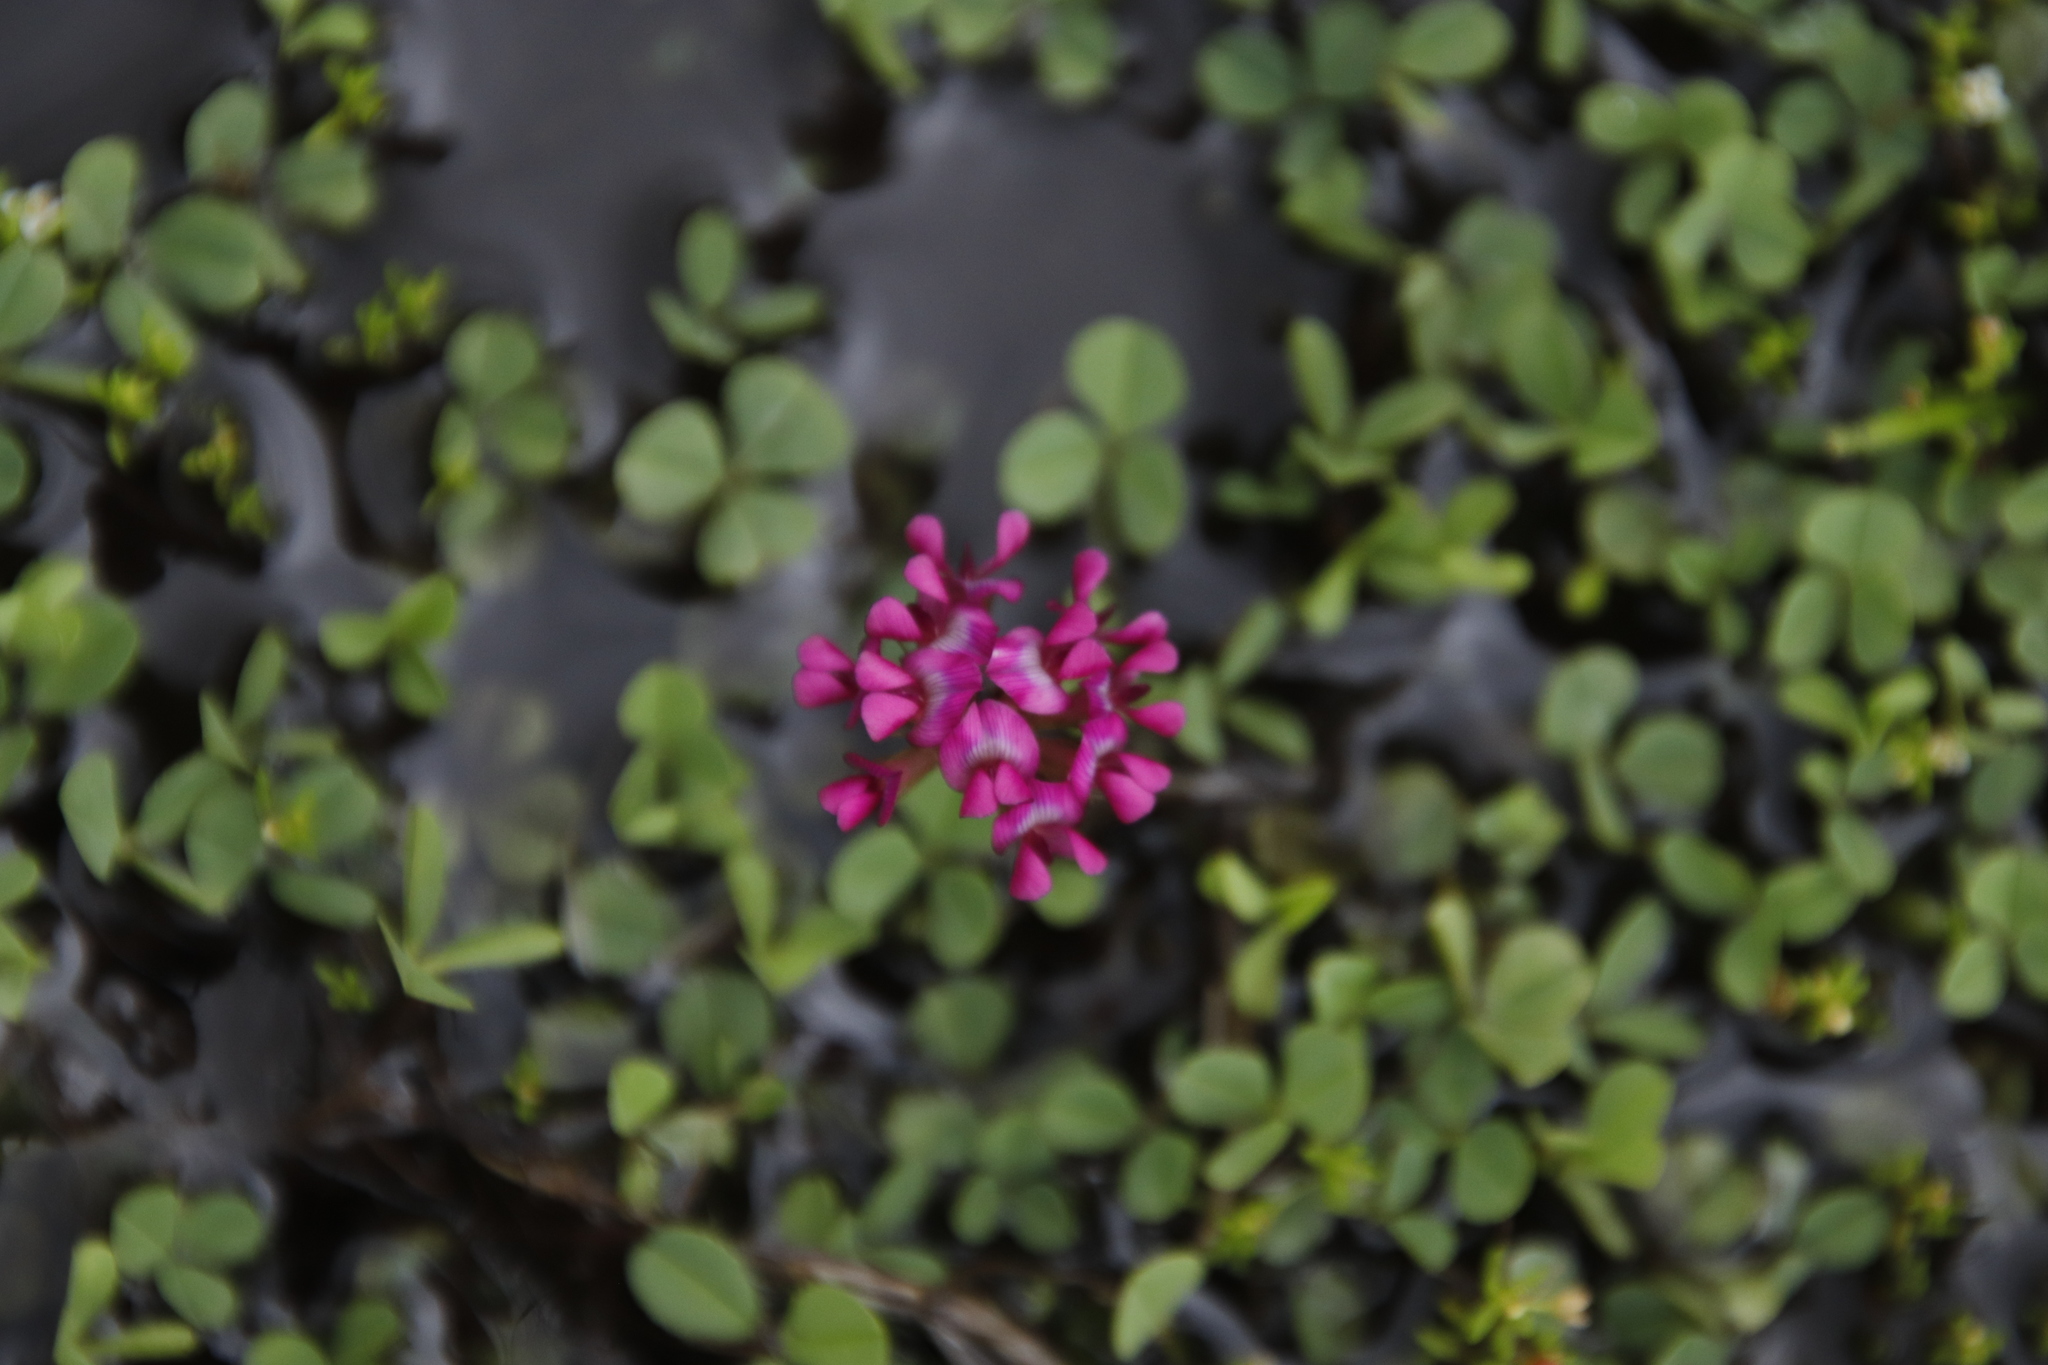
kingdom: Plantae
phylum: Tracheophyta
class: Magnoliopsida
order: Fabales
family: Fabaceae
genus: Trifolium
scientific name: Trifolium burchellianum
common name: Burchell's clover
